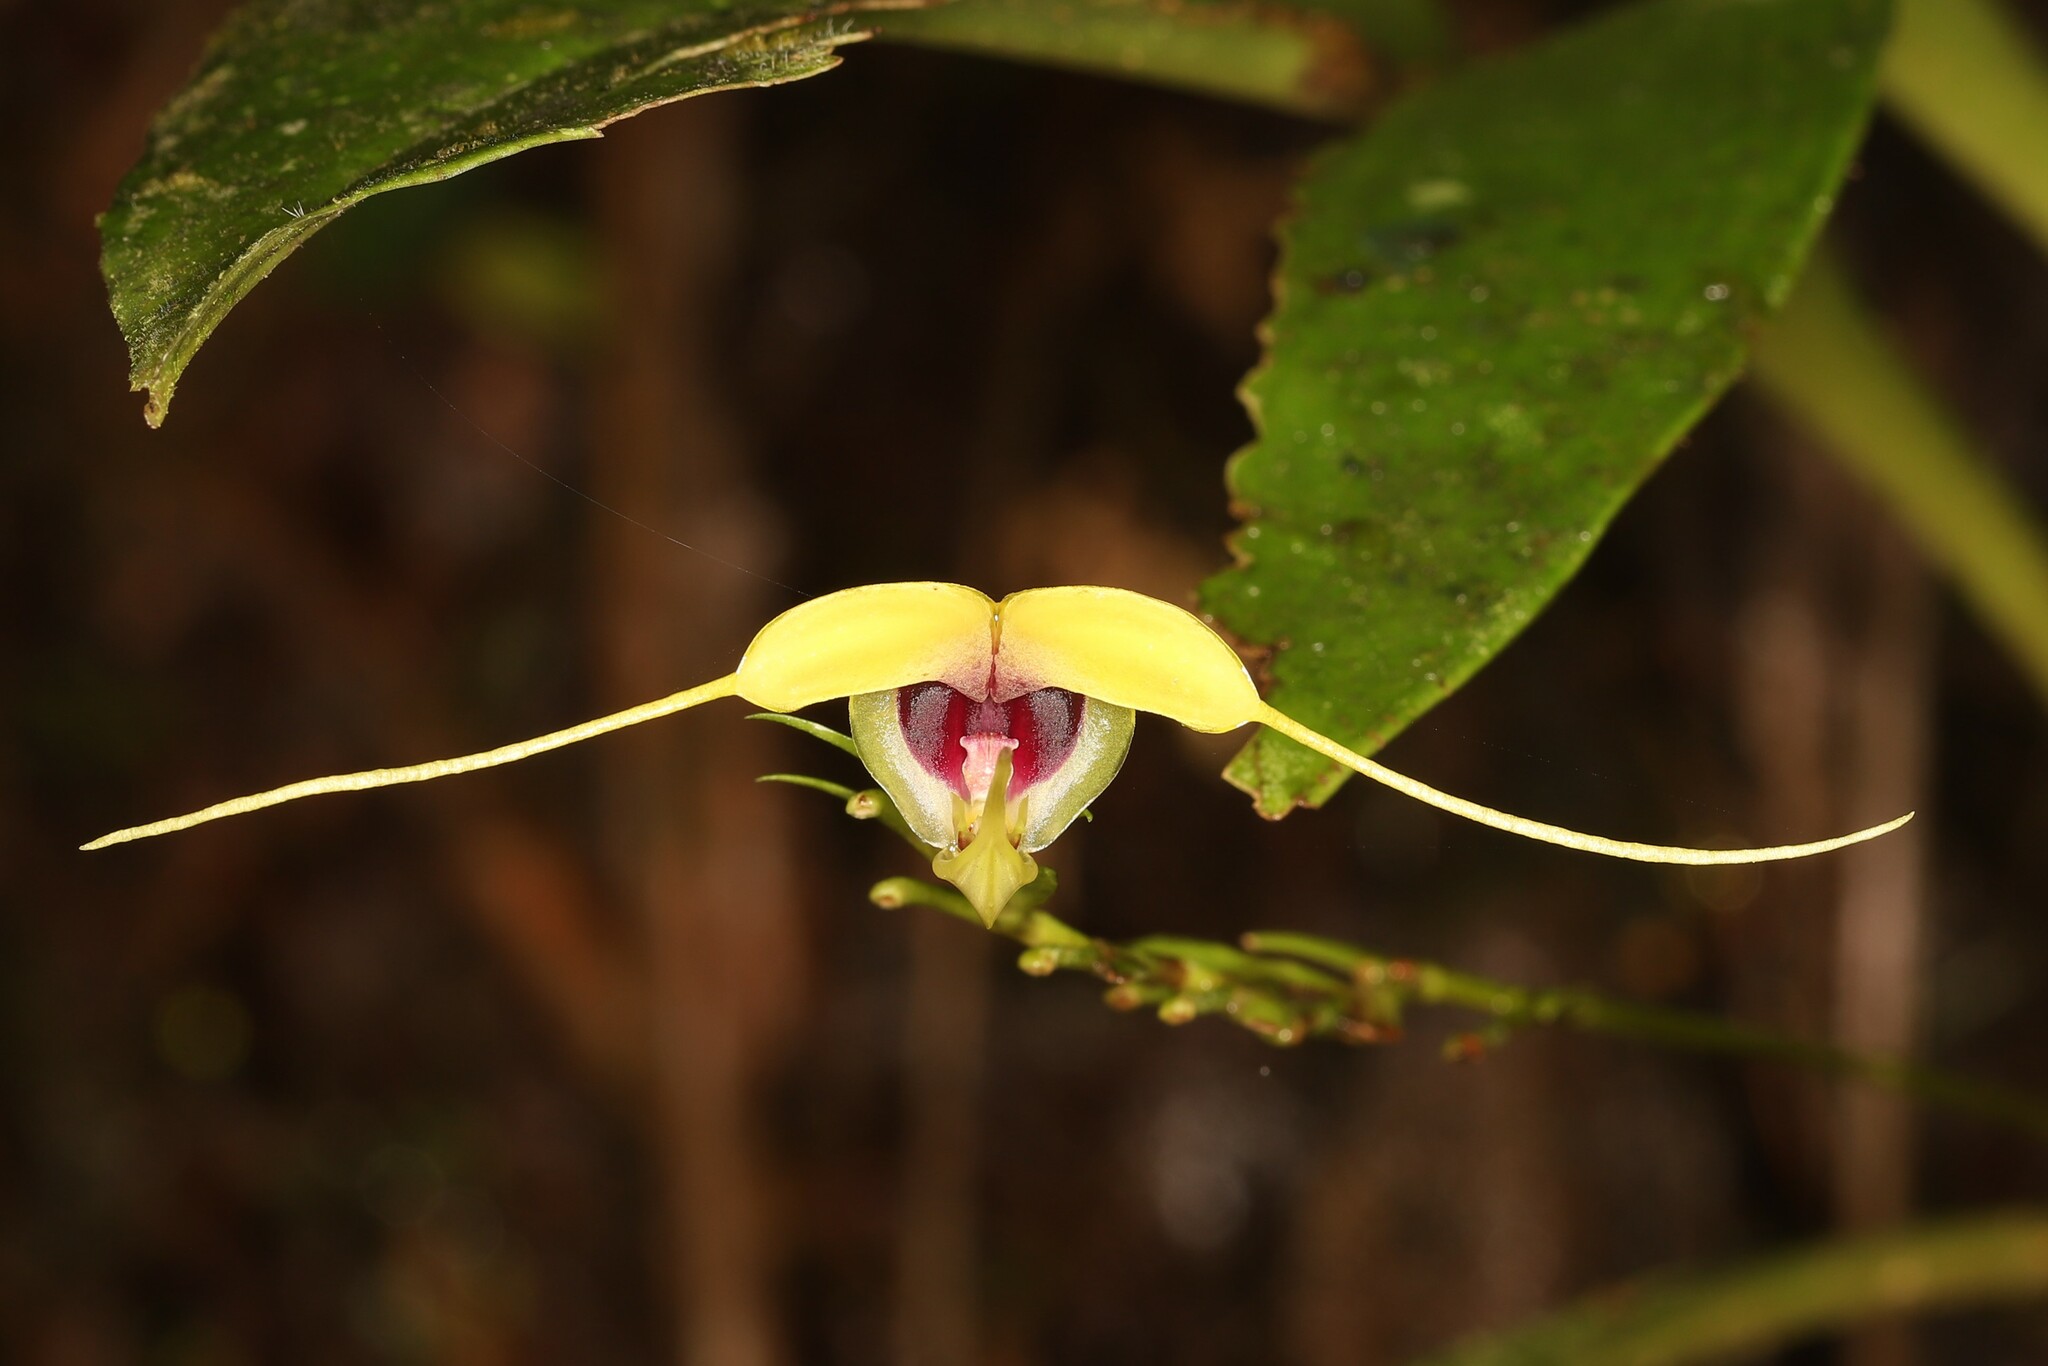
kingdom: Plantae
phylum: Tracheophyta
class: Liliopsida
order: Asparagales
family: Orchidaceae
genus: Scaphosepalum
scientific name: Scaphosepalum grande
